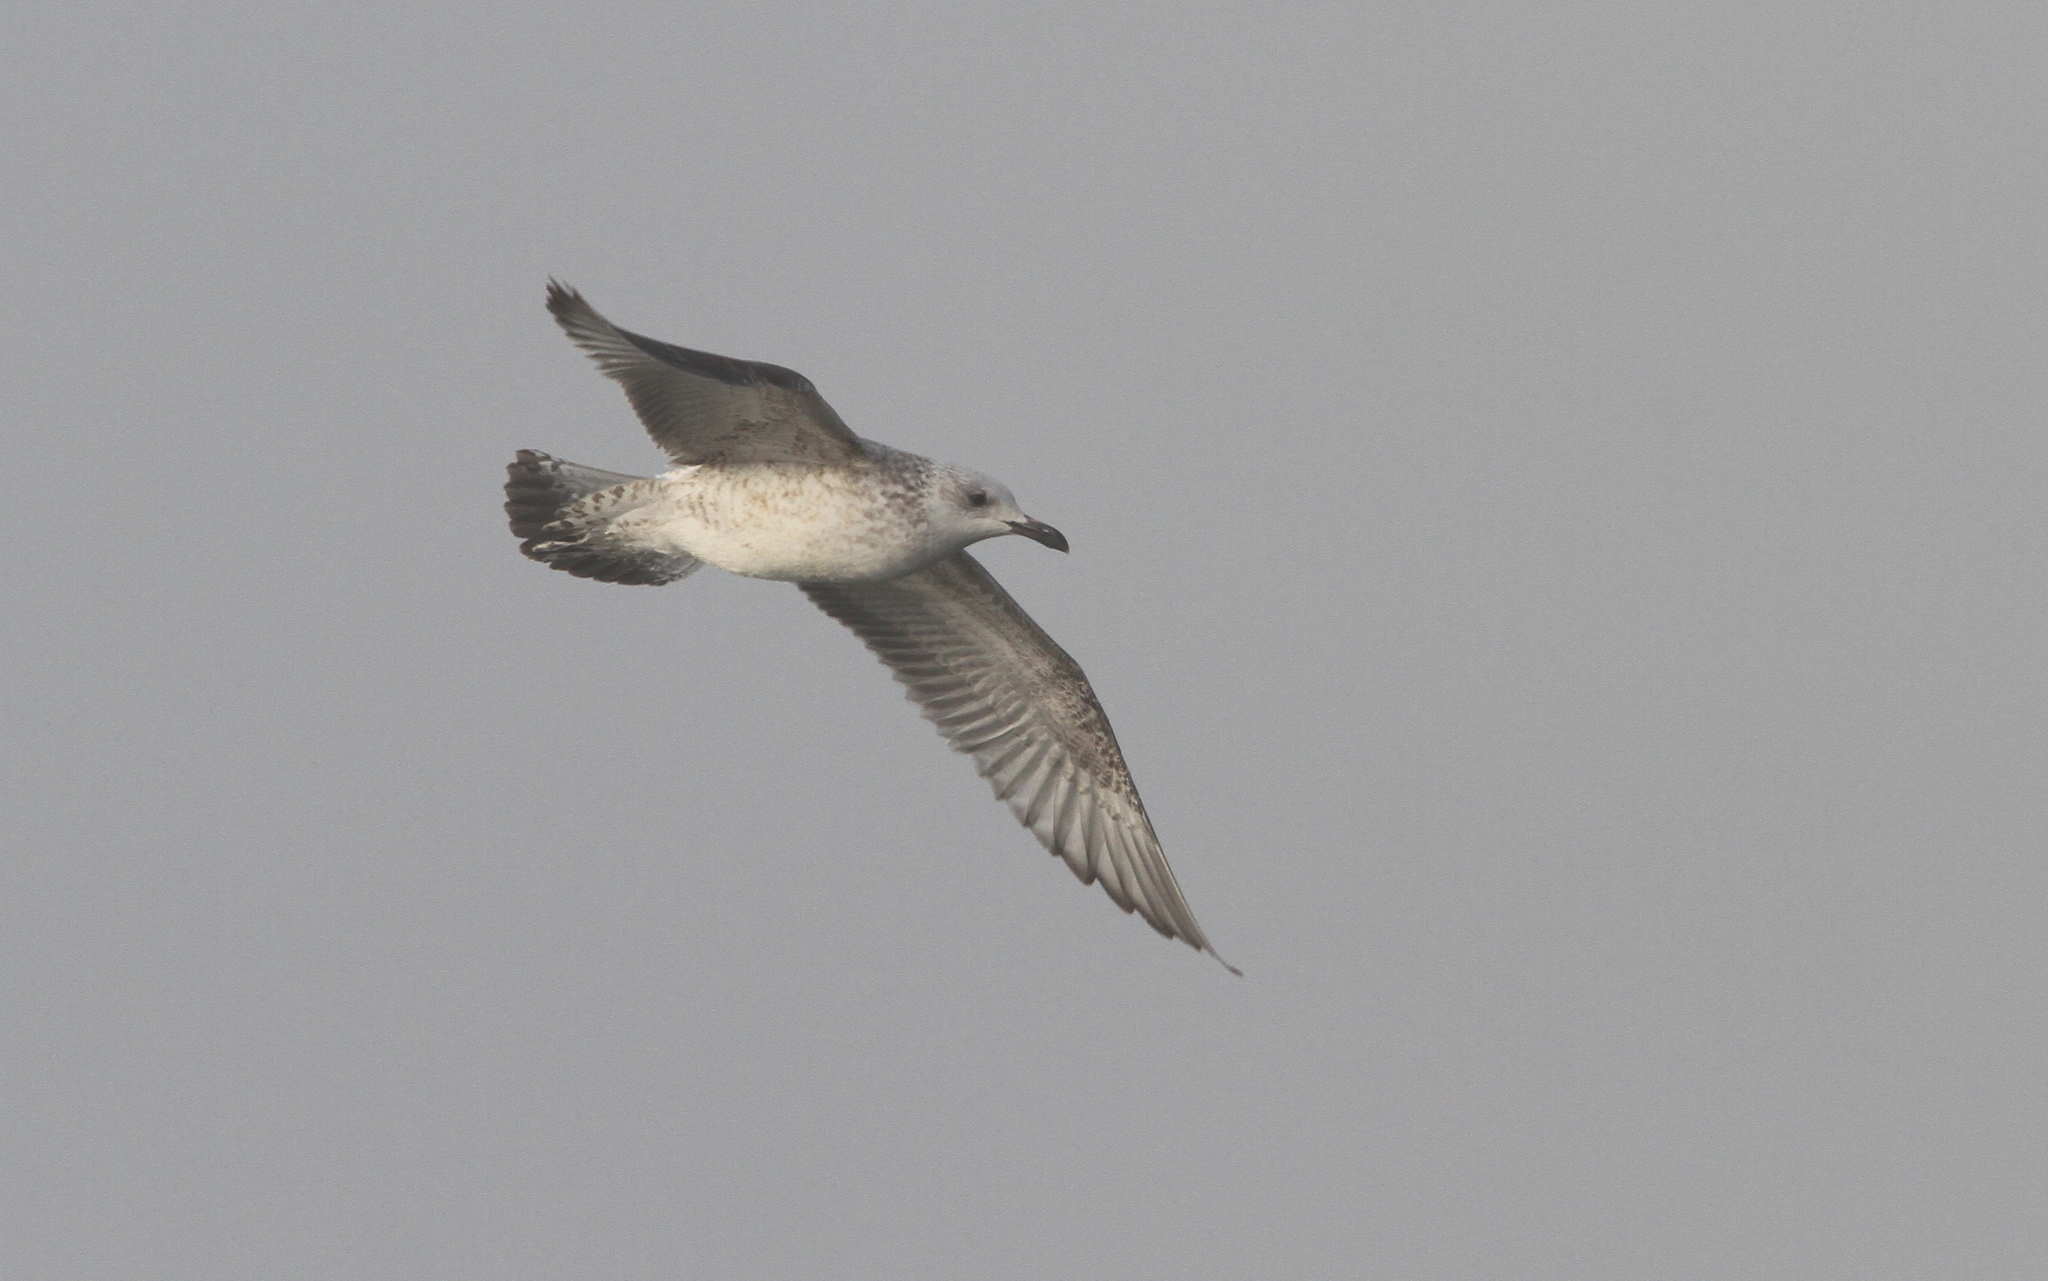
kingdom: Animalia
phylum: Chordata
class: Aves
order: Charadriiformes
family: Laridae
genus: Larus
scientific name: Larus cachinnans
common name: Caspian gull
